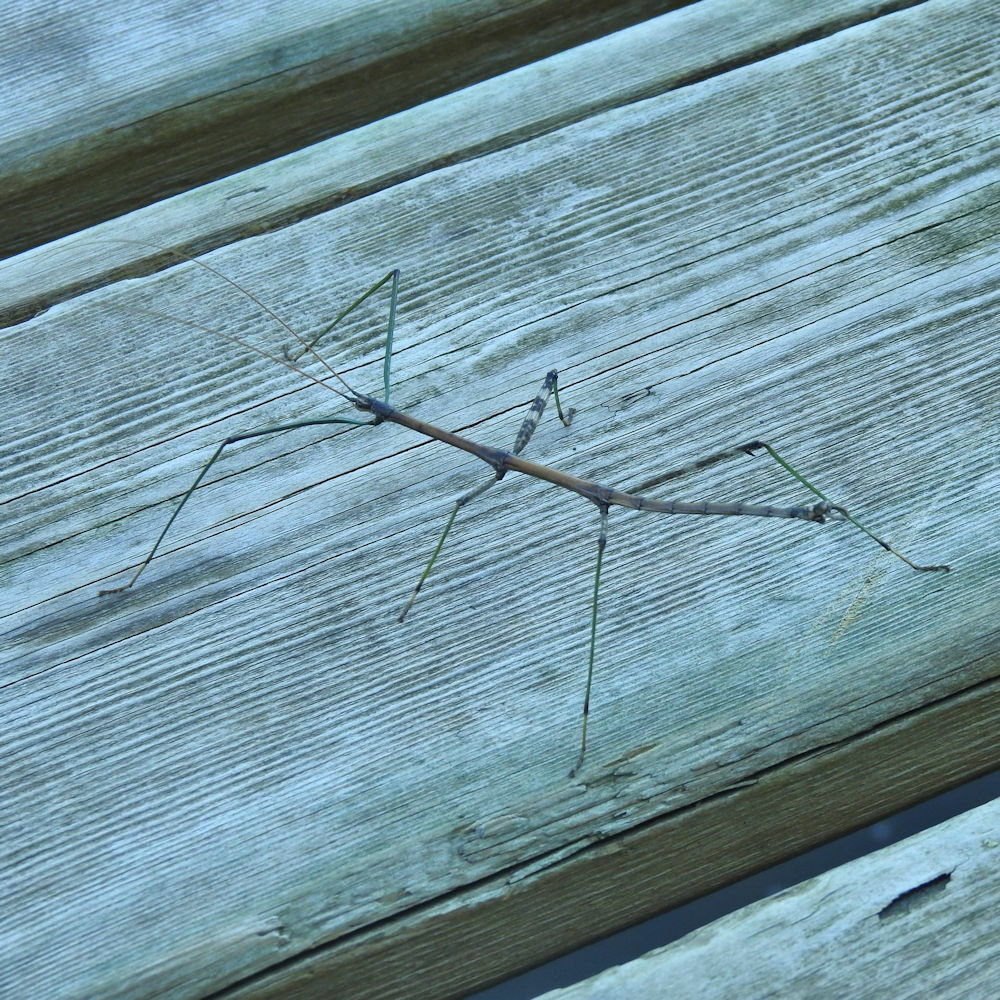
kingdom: Animalia
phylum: Arthropoda
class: Insecta
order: Phasmida
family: Diapheromeridae
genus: Diapheromera
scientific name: Diapheromera femorata
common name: Common american walkingstick
